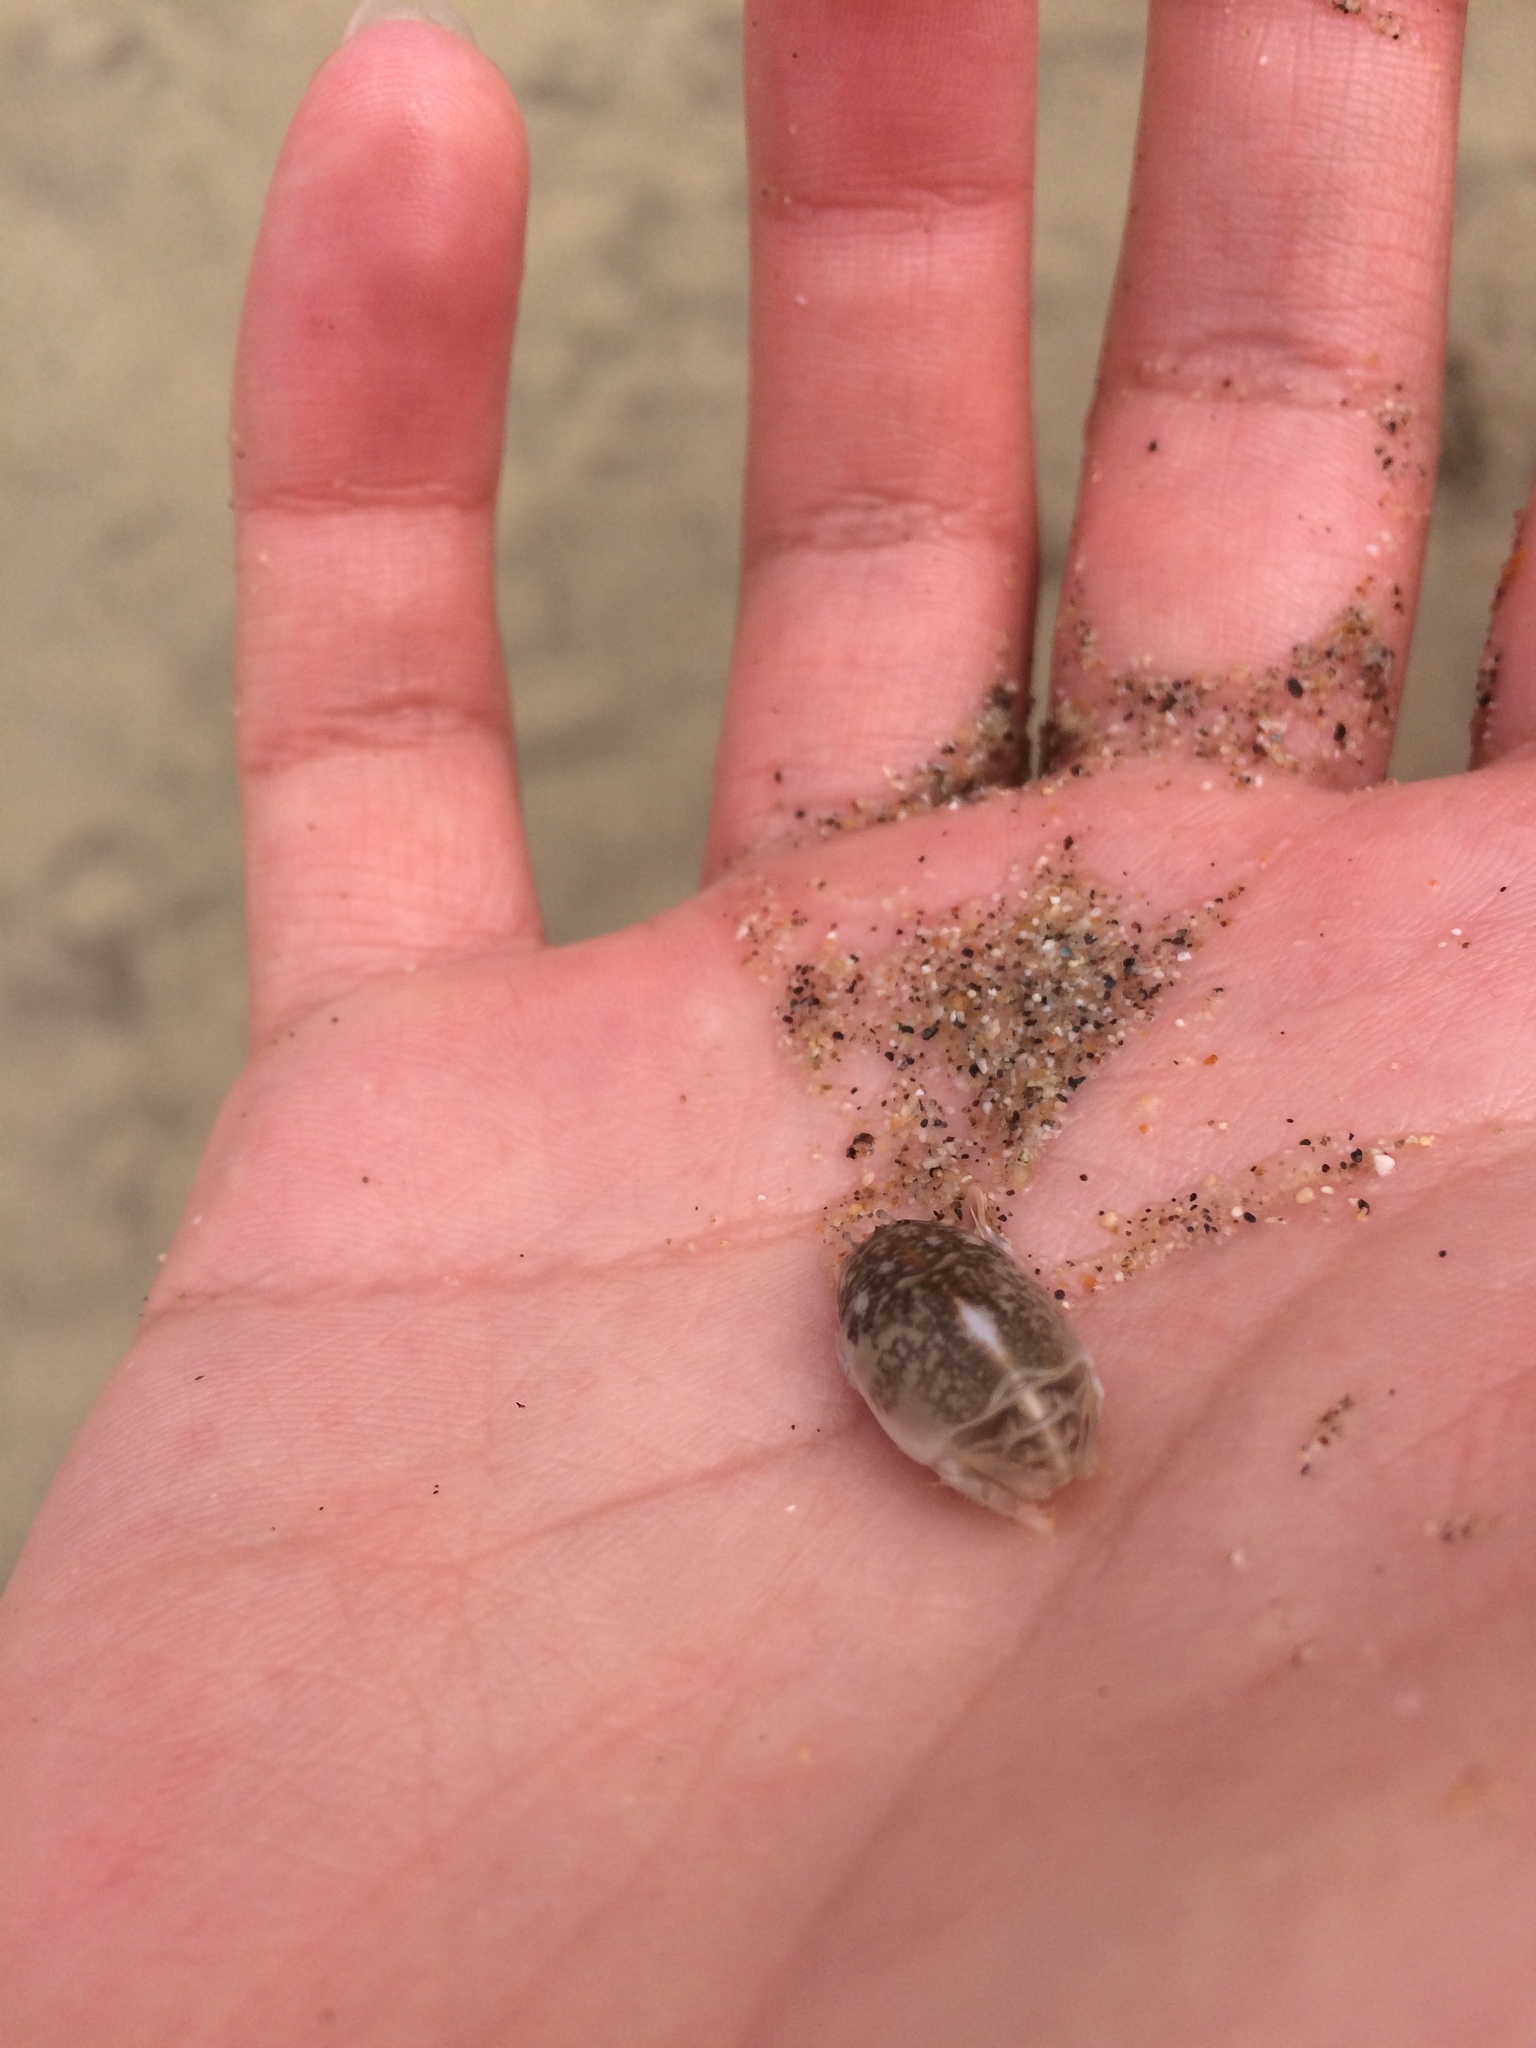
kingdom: Animalia
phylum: Arthropoda
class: Malacostraca
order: Decapoda
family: Hippidae
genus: Emerita
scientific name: Emerita analoga
